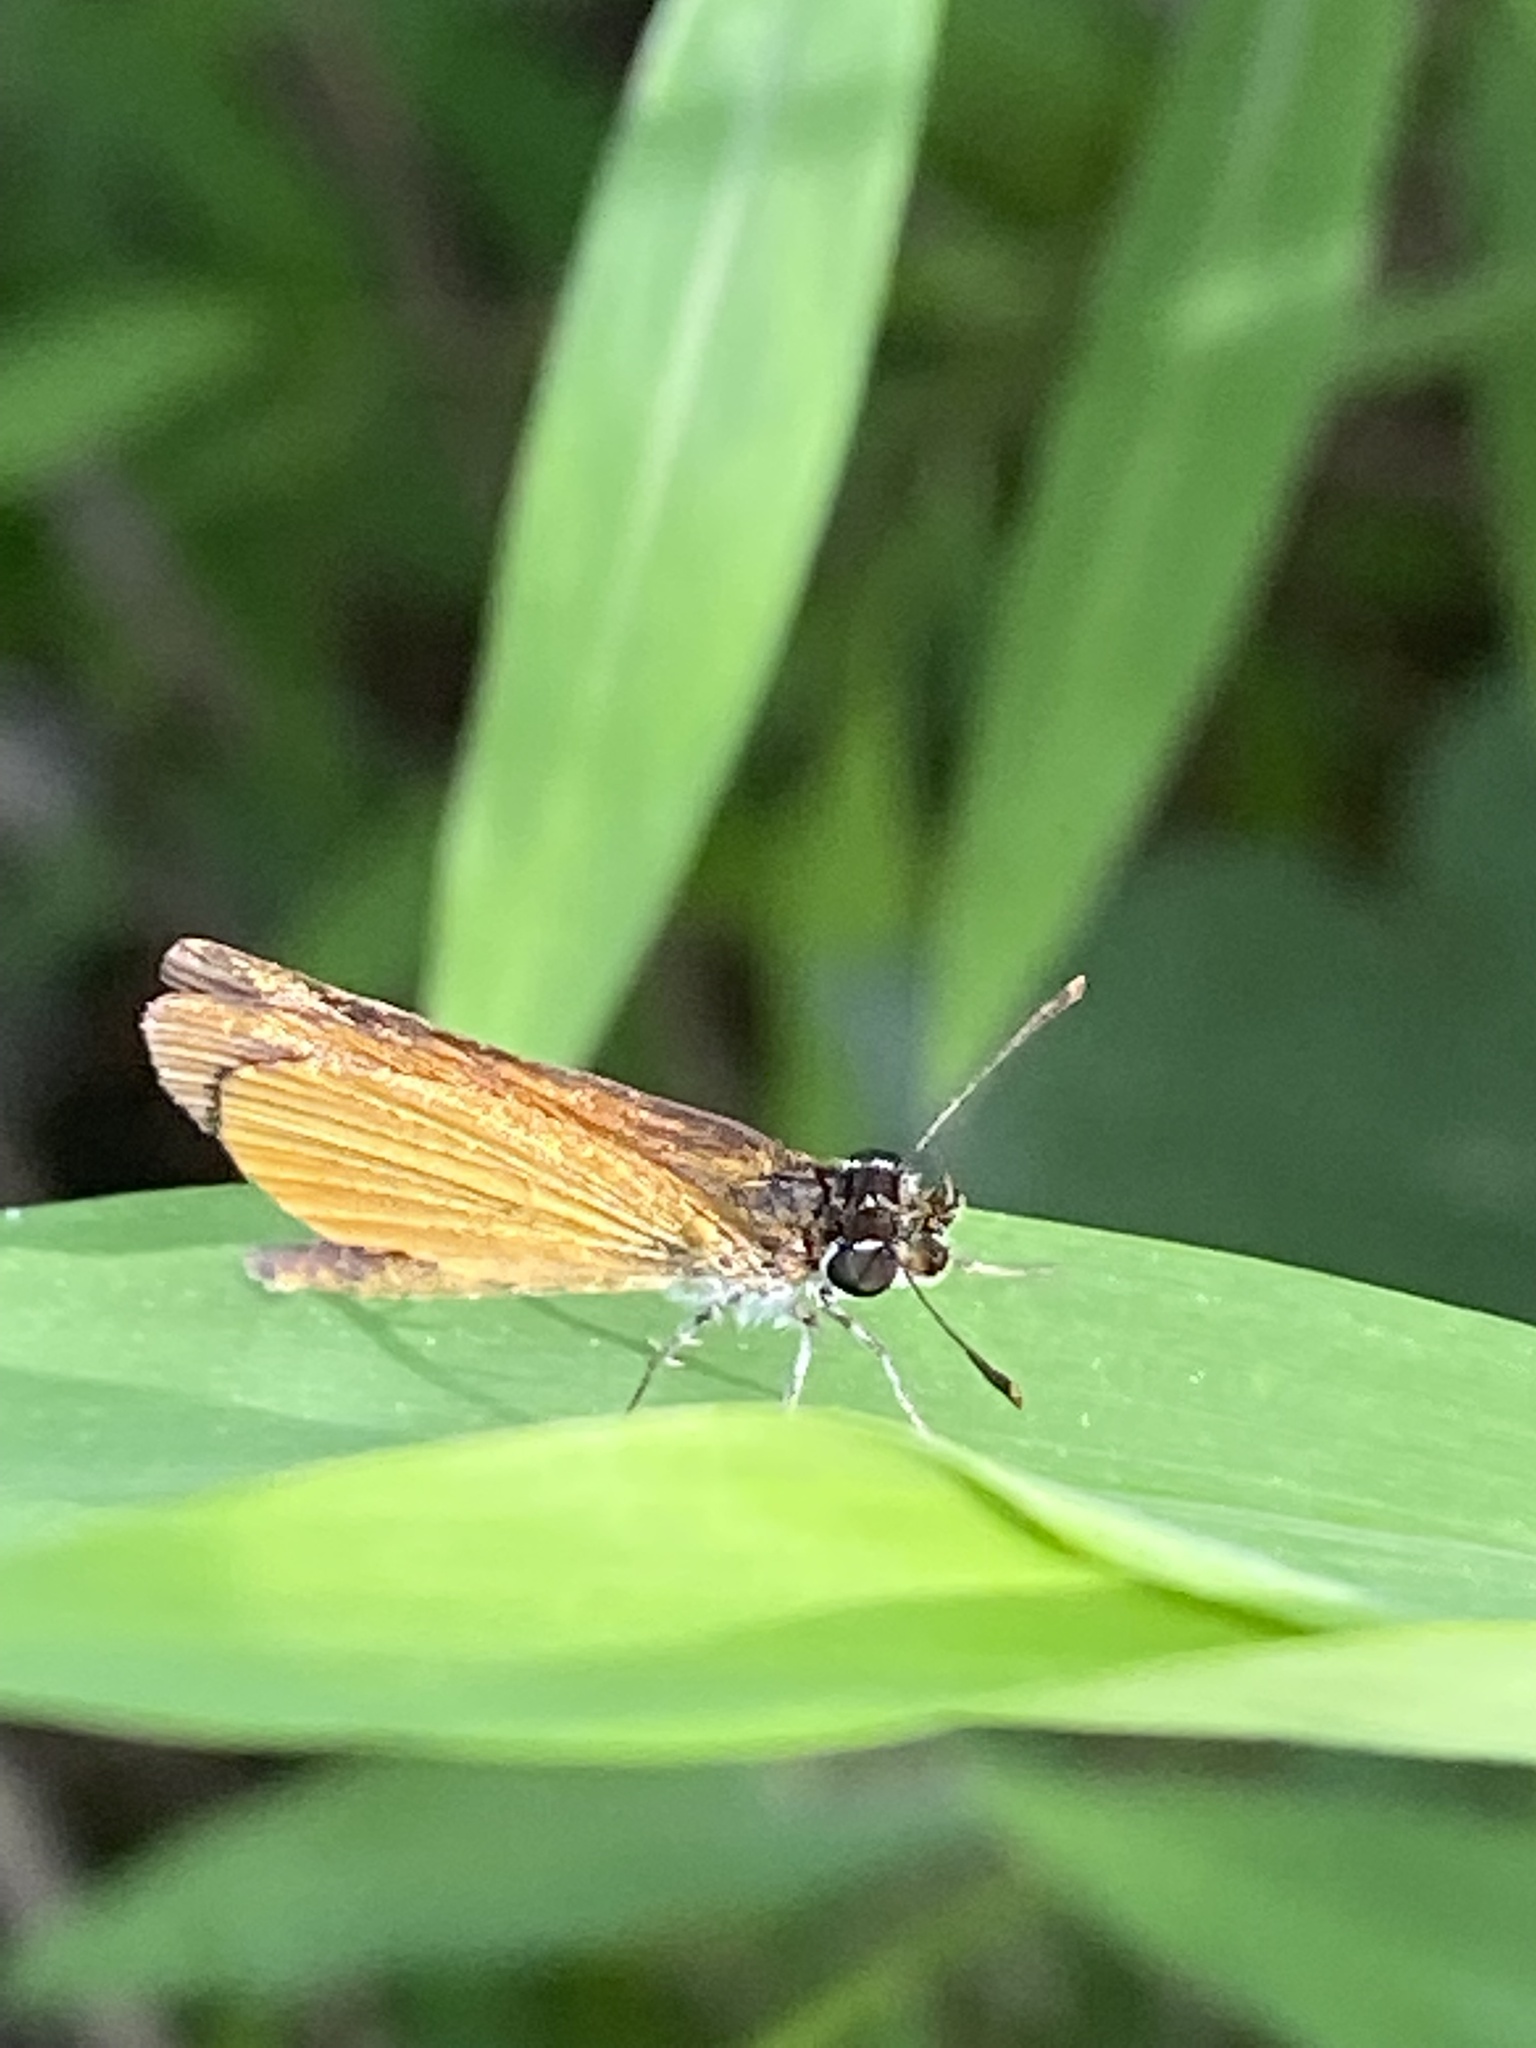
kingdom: Animalia
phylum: Arthropoda
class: Insecta
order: Lepidoptera
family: Hesperiidae
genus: Ancyloxypha
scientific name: Ancyloxypha numitor
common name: Least skipper
